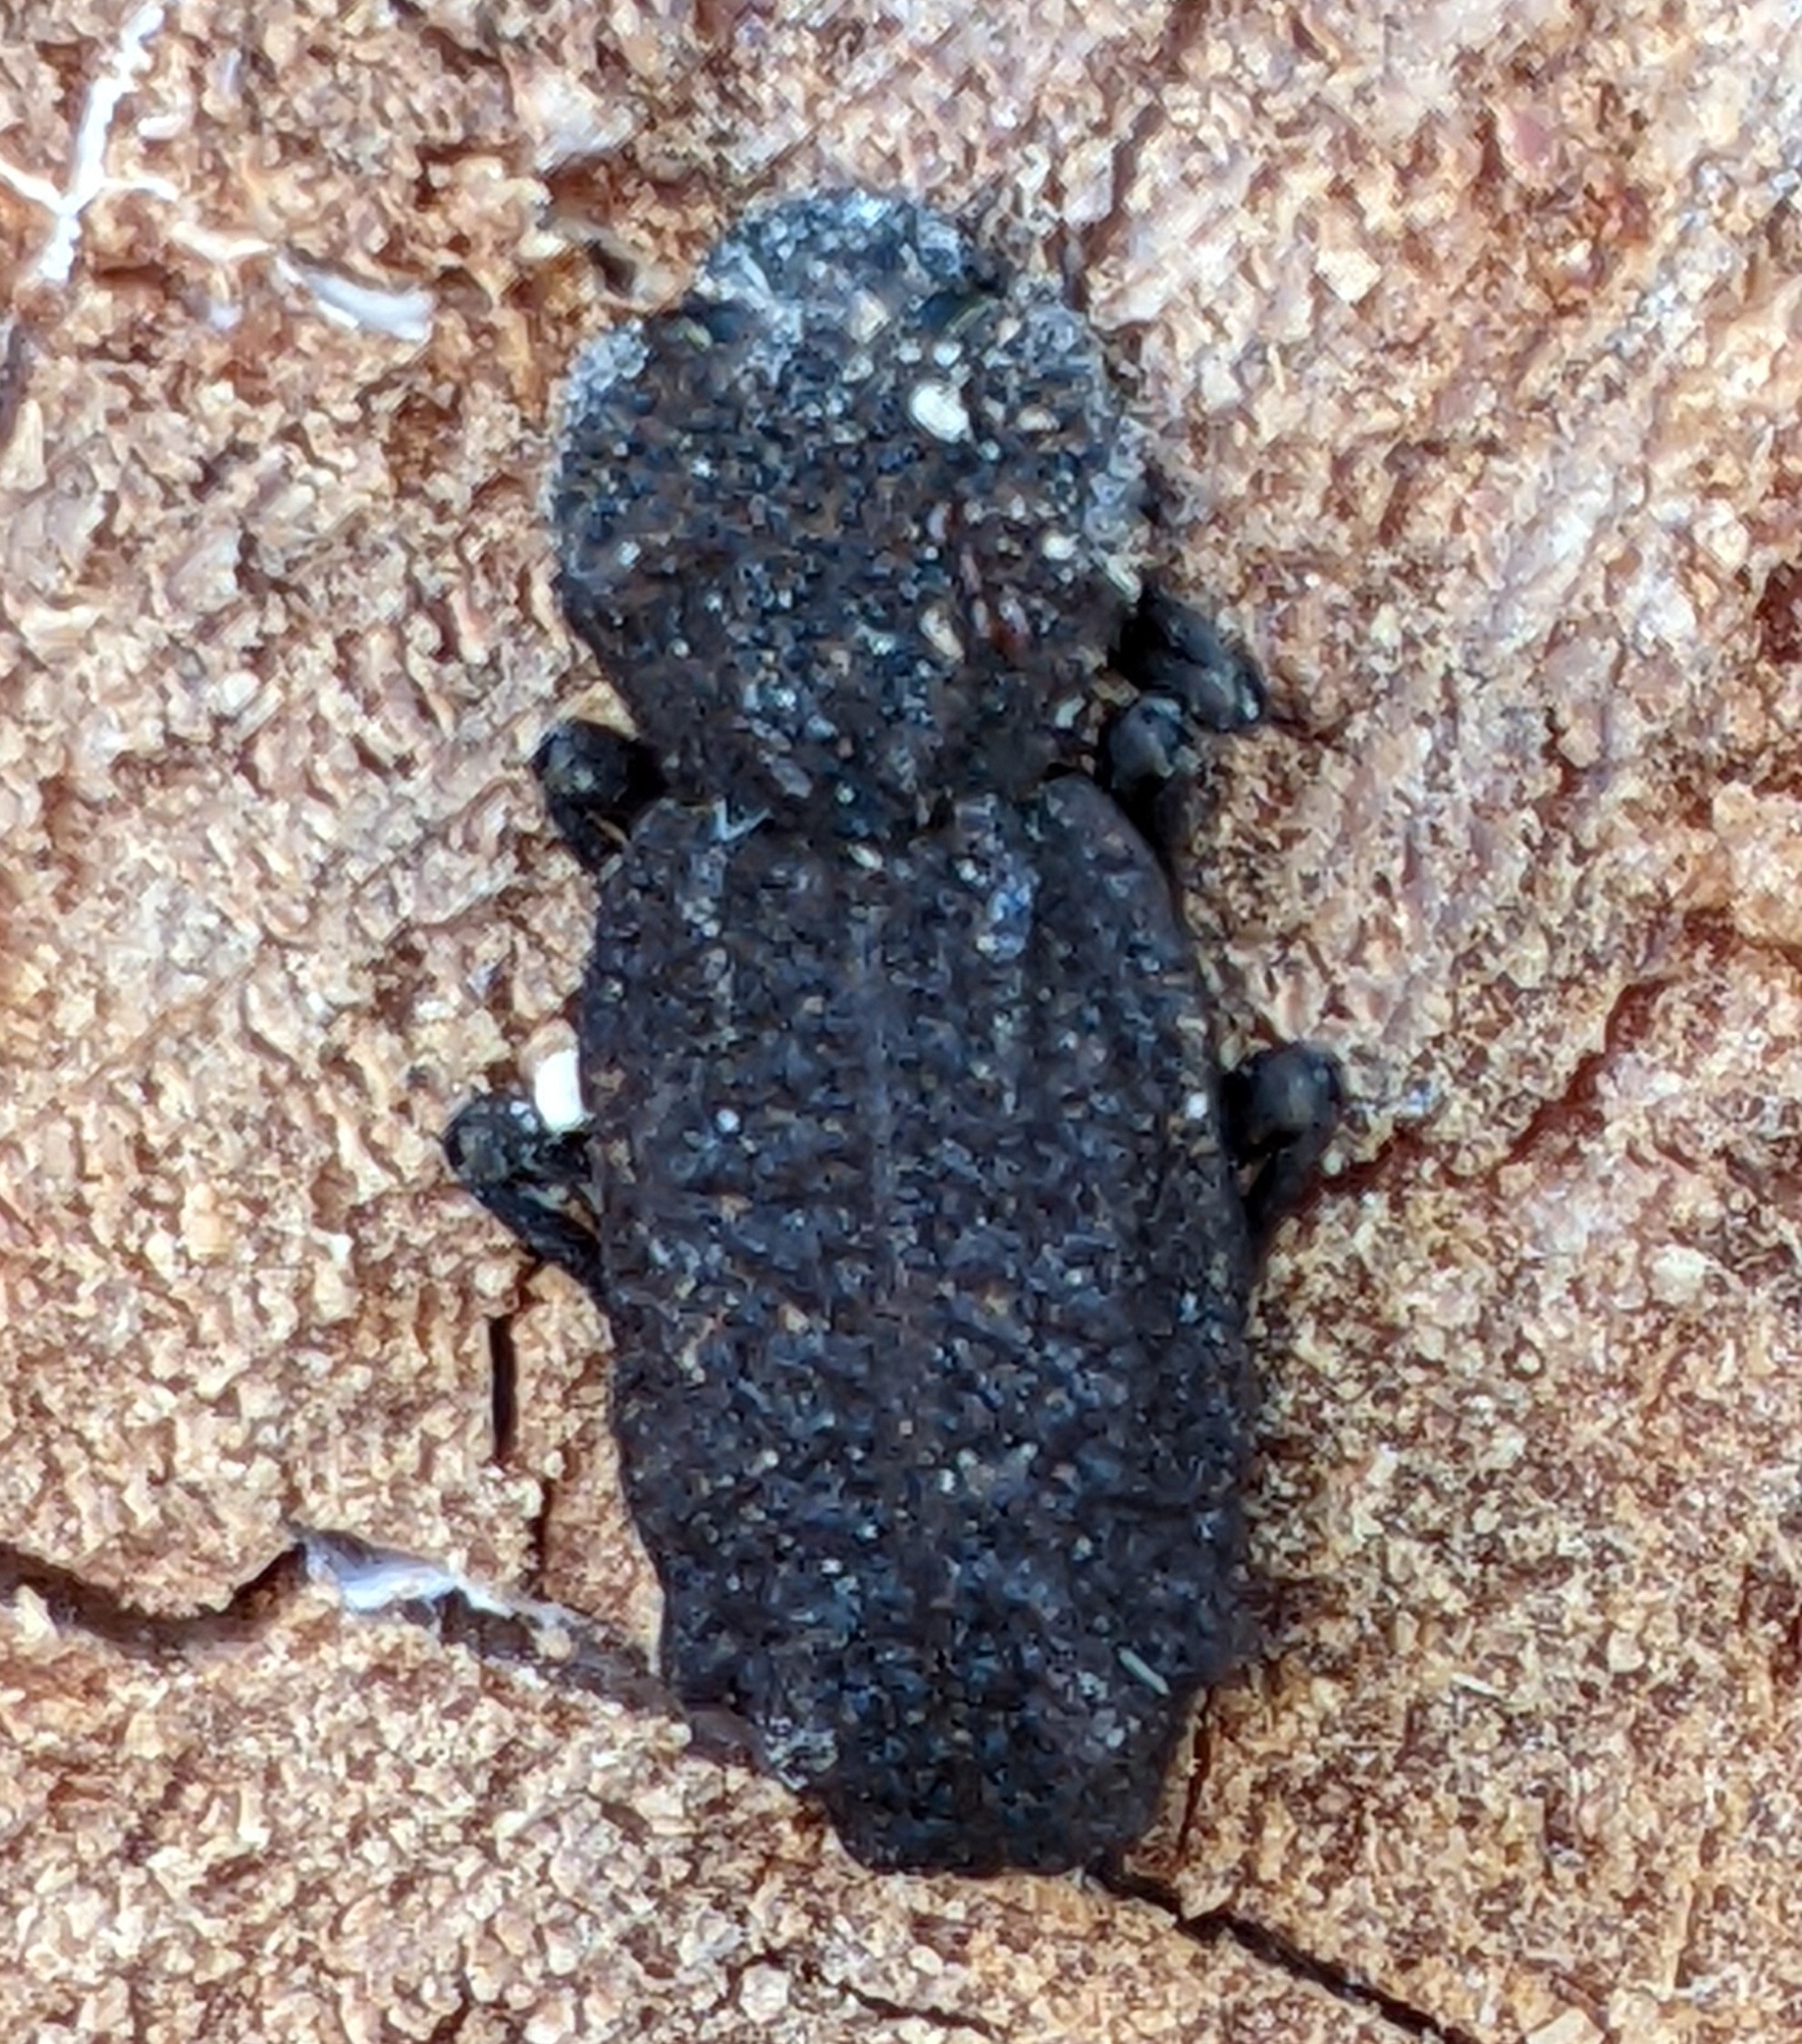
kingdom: Animalia
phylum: Arthropoda
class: Insecta
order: Coleoptera
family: Zopheridae
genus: Phellopsis
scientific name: Phellopsis porcata
